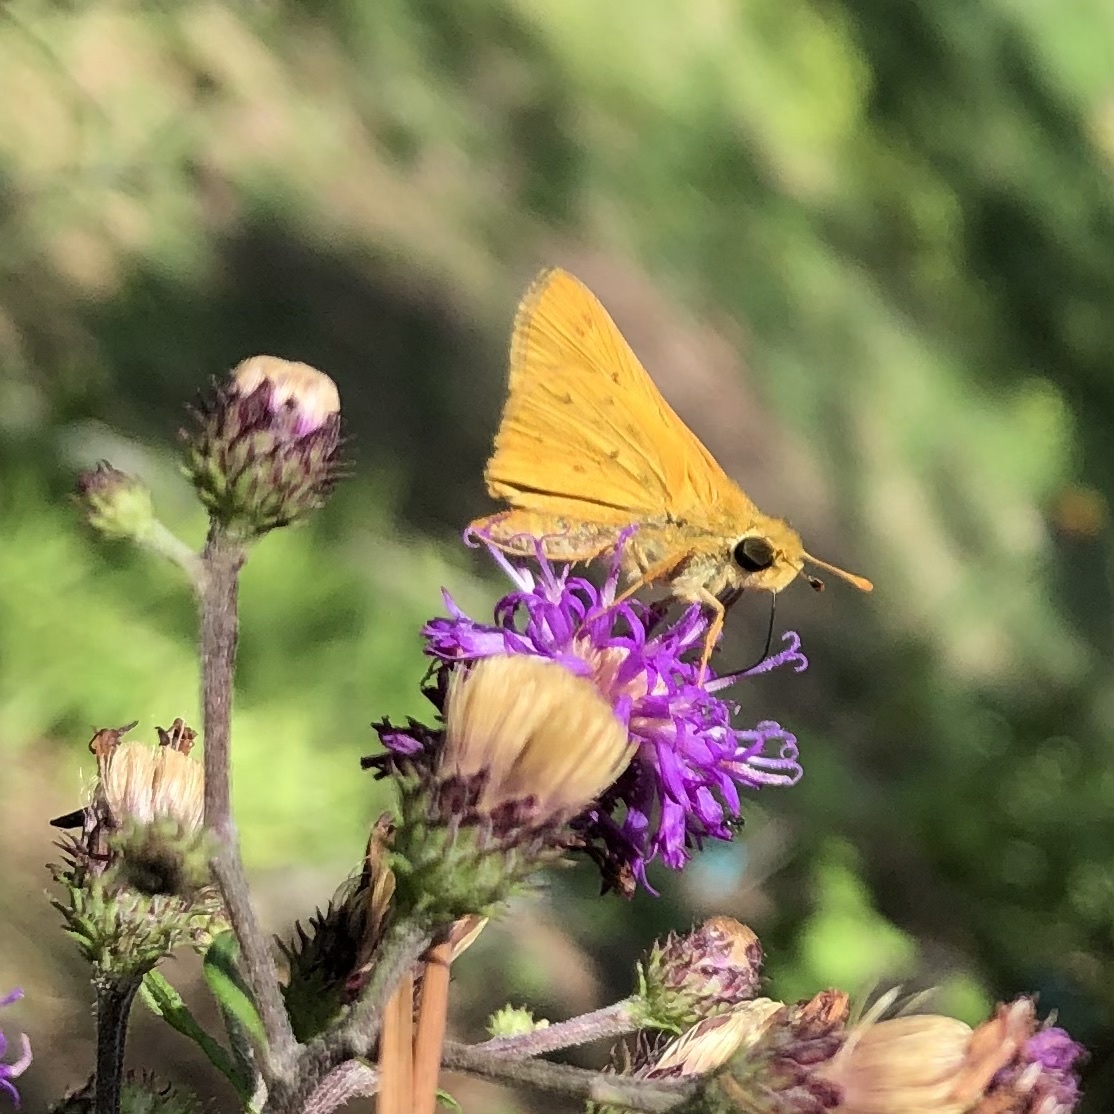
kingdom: Animalia
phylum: Arthropoda
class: Insecta
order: Lepidoptera
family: Hesperiidae
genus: Hylephila
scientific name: Hylephila phyleus
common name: Fiery skipper
